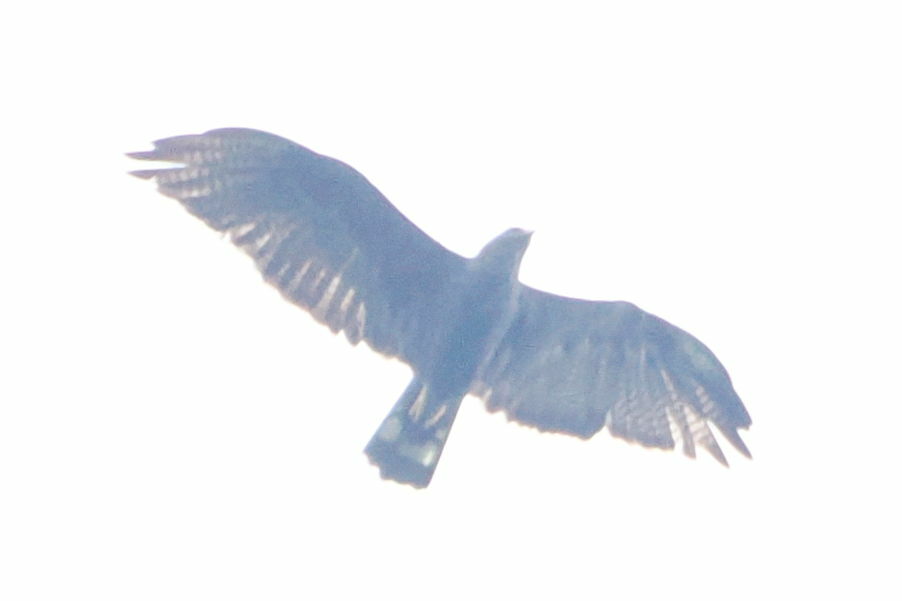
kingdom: Animalia
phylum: Chordata
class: Aves
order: Accipitriformes
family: Accipitridae
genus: Buteo
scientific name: Buteo albonotatus
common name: Zone-tailed hawk
